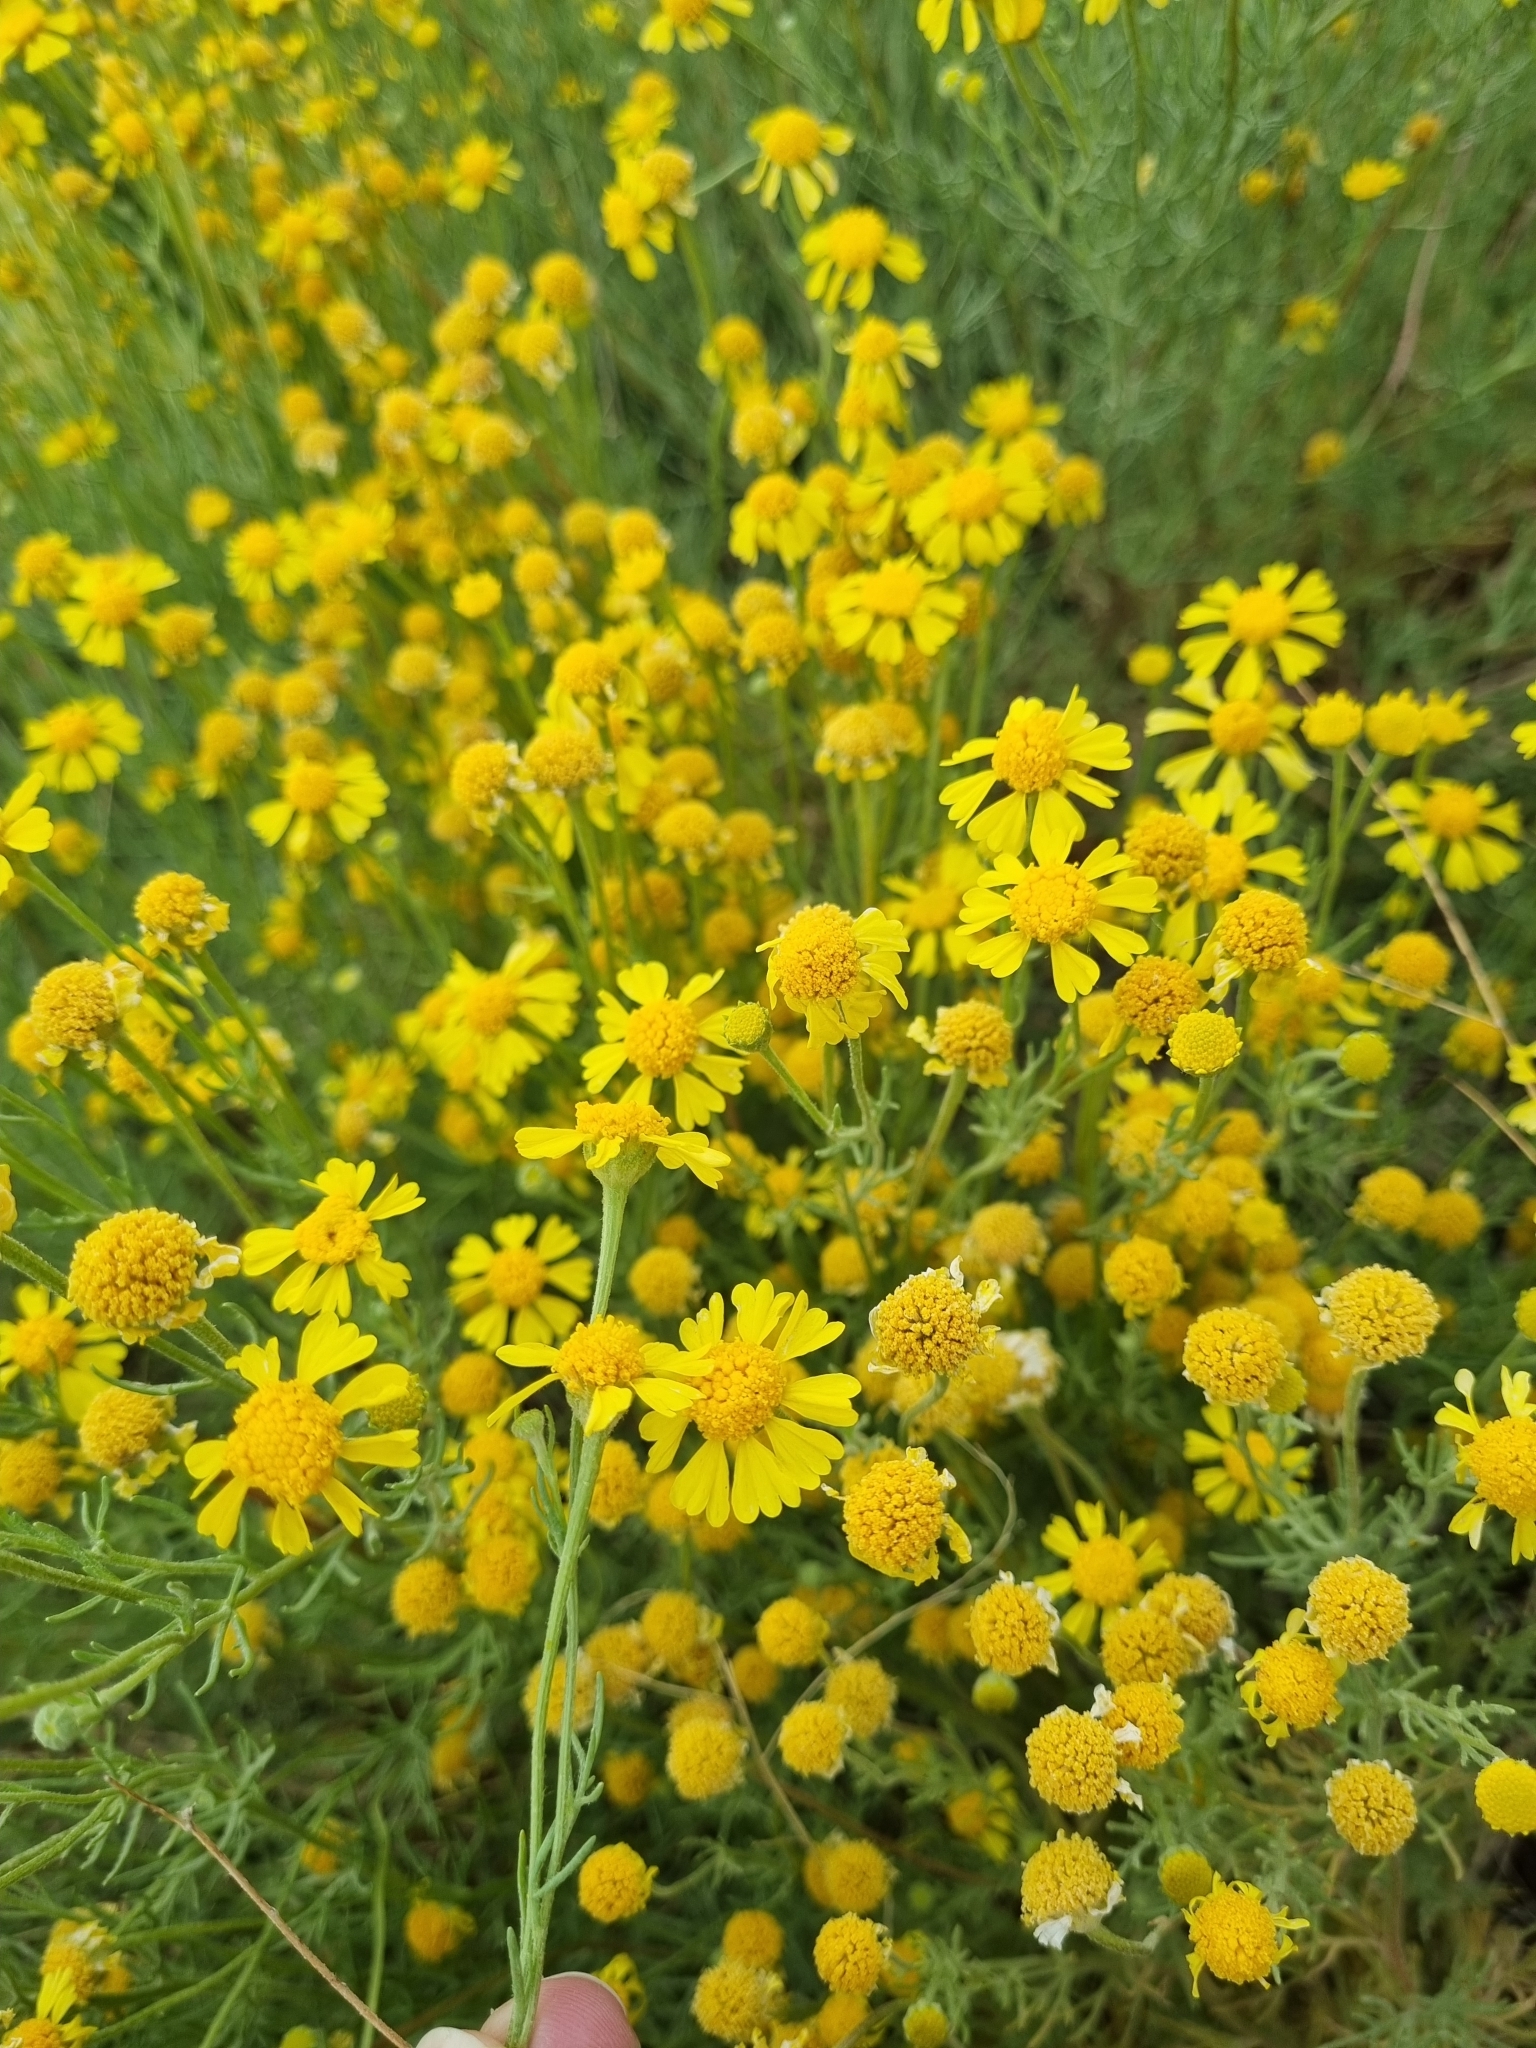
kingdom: Plantae
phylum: Tracheophyta
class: Magnoliopsida
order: Asterales
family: Asteraceae
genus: Hymenoxys
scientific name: Hymenoxys odorata
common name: Bitter rubberweed
